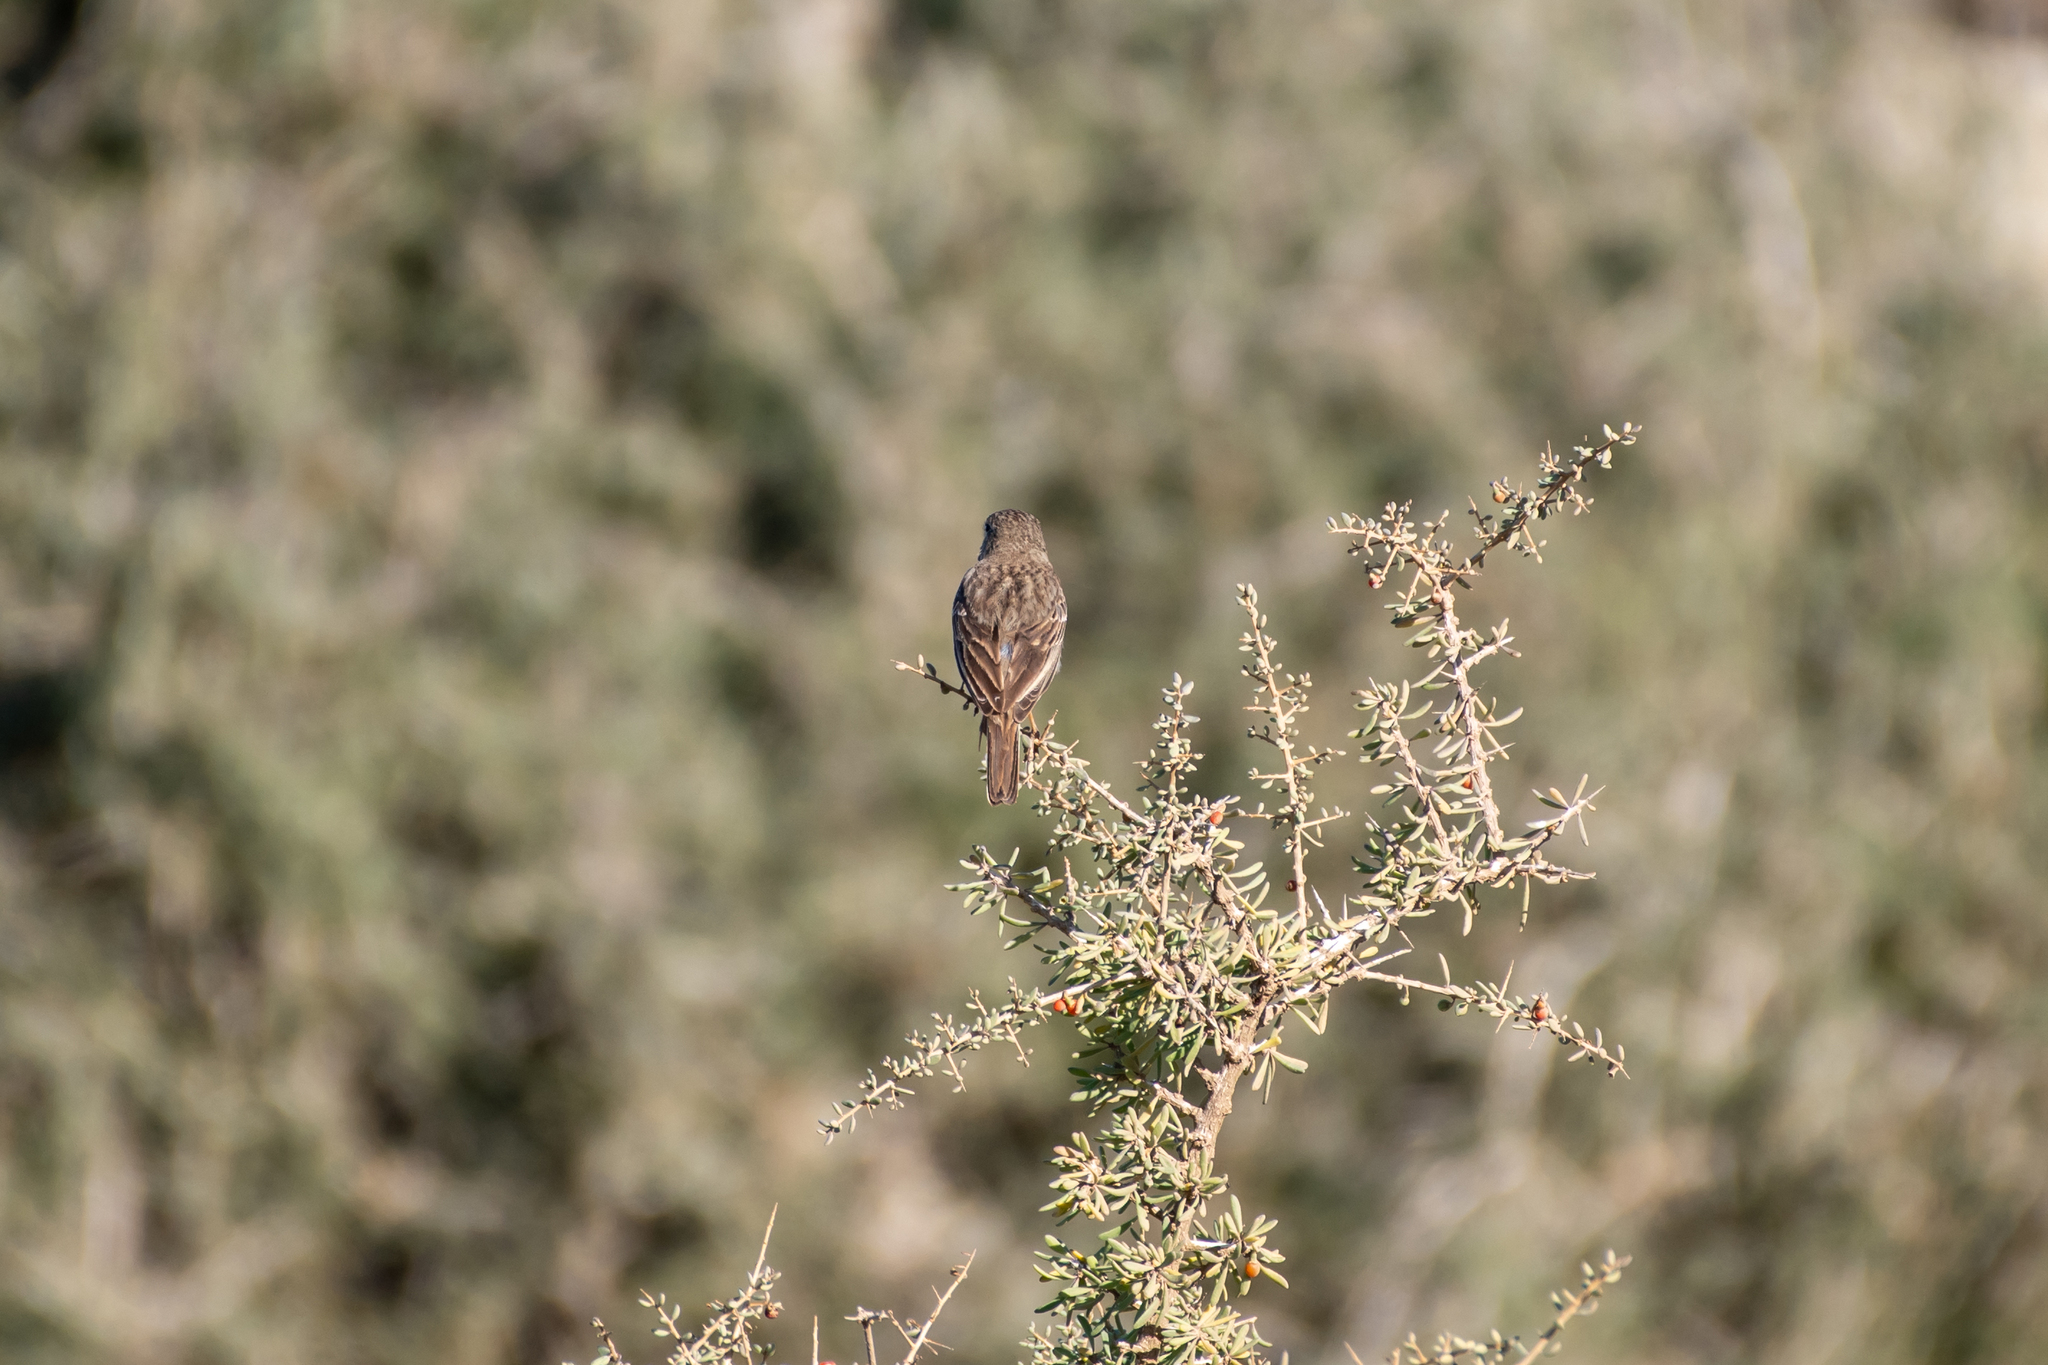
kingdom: Animalia
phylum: Chordata
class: Aves
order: Passeriformes
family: Motacillidae
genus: Anthus
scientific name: Anthus berthelotii
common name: Berthelot's pipit
